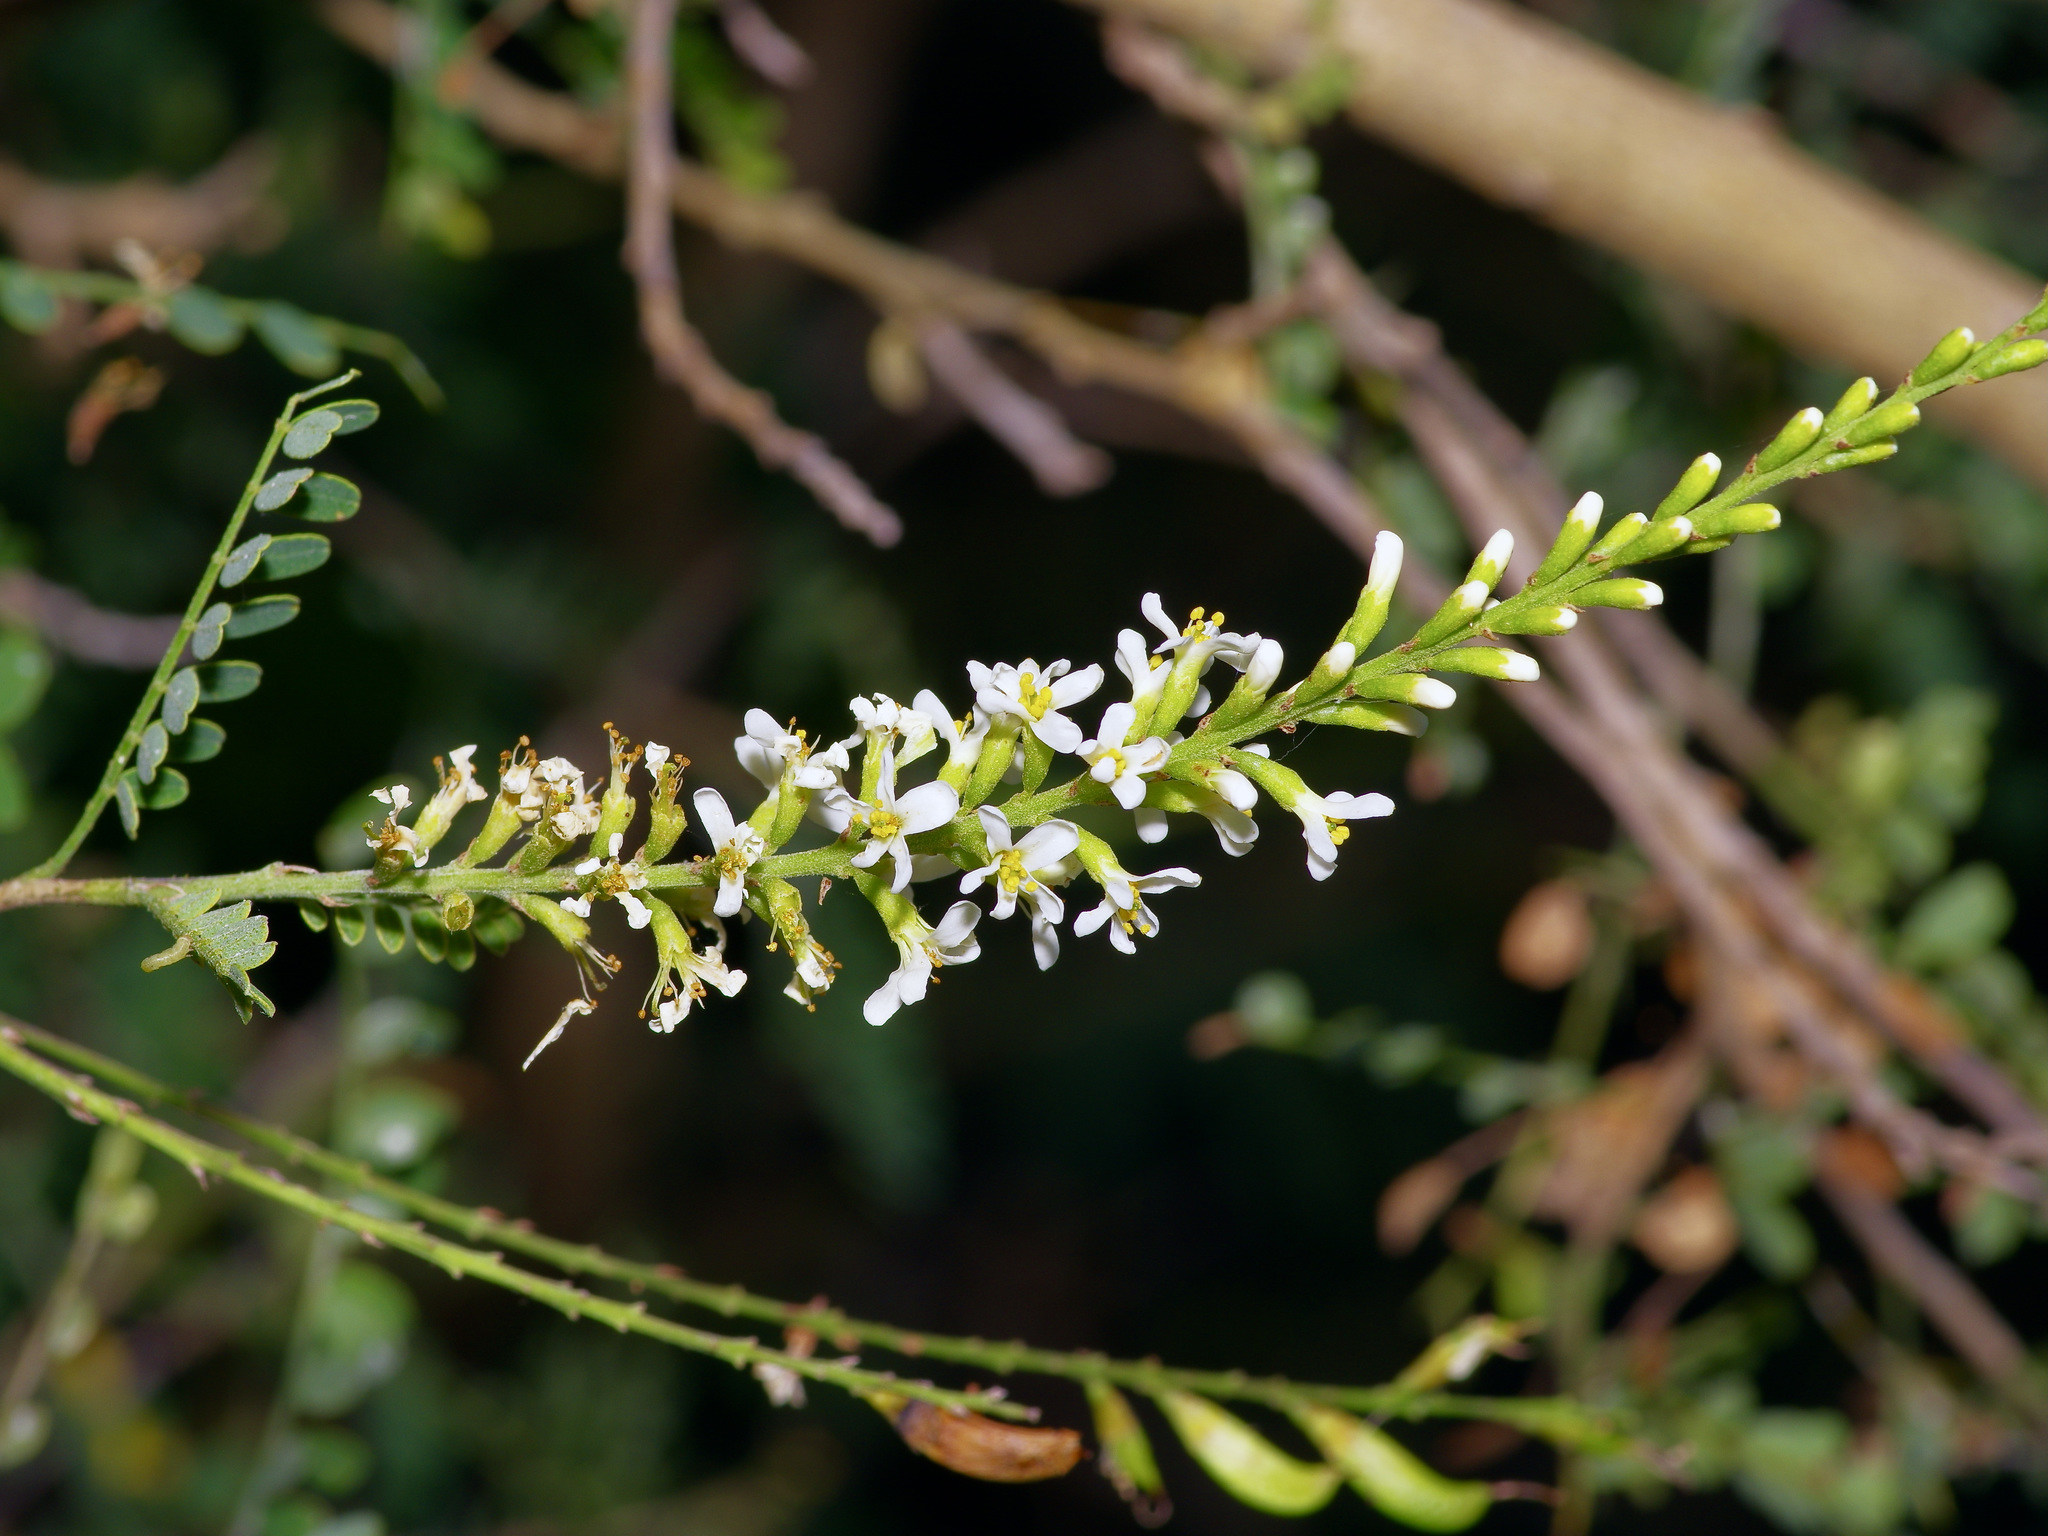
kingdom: Plantae
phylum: Tracheophyta
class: Magnoliopsida
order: Fabales
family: Fabaceae
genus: Eysenhardtia
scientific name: Eysenhardtia texana
